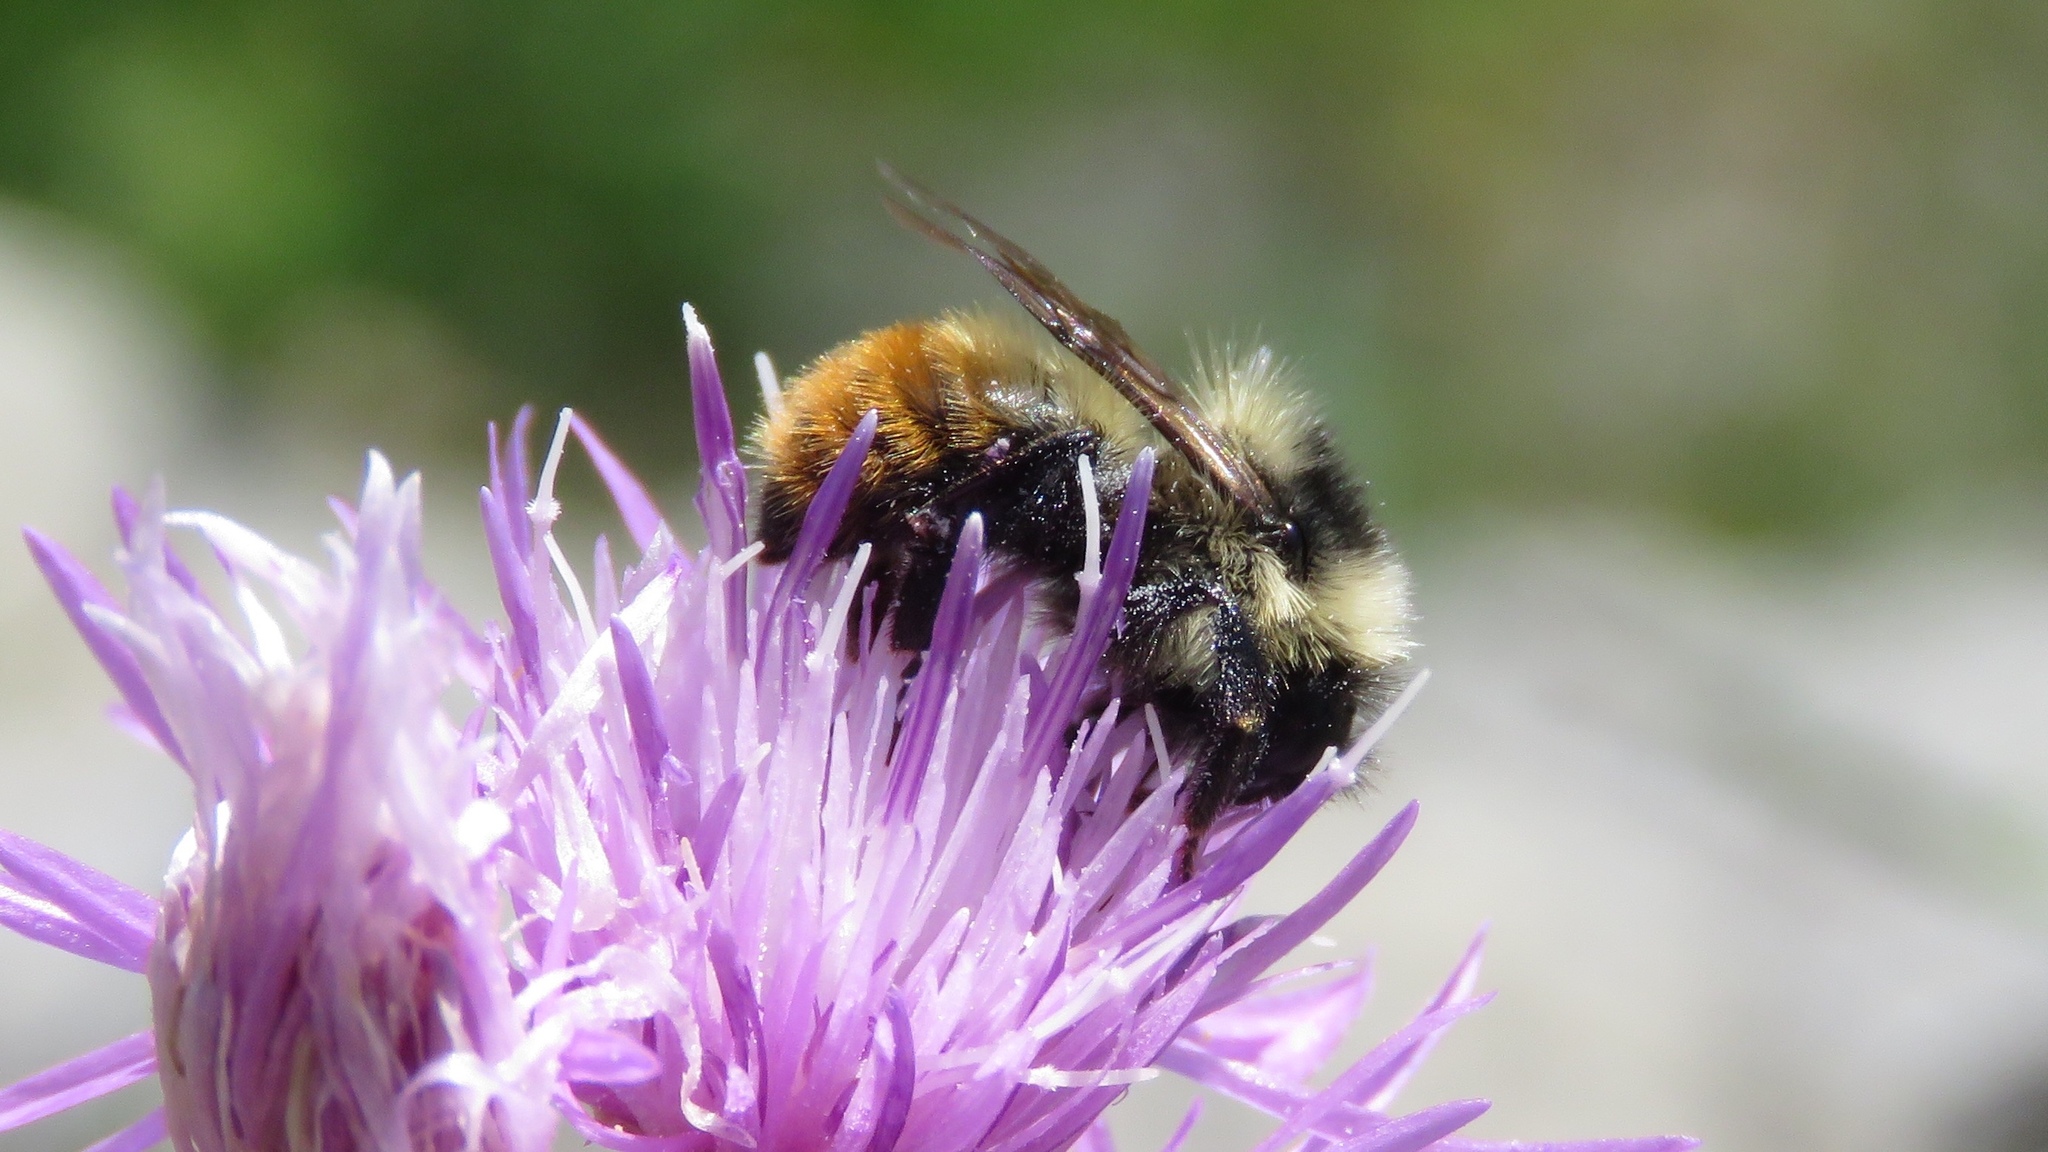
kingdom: Animalia
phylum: Arthropoda
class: Insecta
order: Hymenoptera
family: Apidae
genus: Bombus
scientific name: Bombus rufocinctus
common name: Red-belted bumble bee
